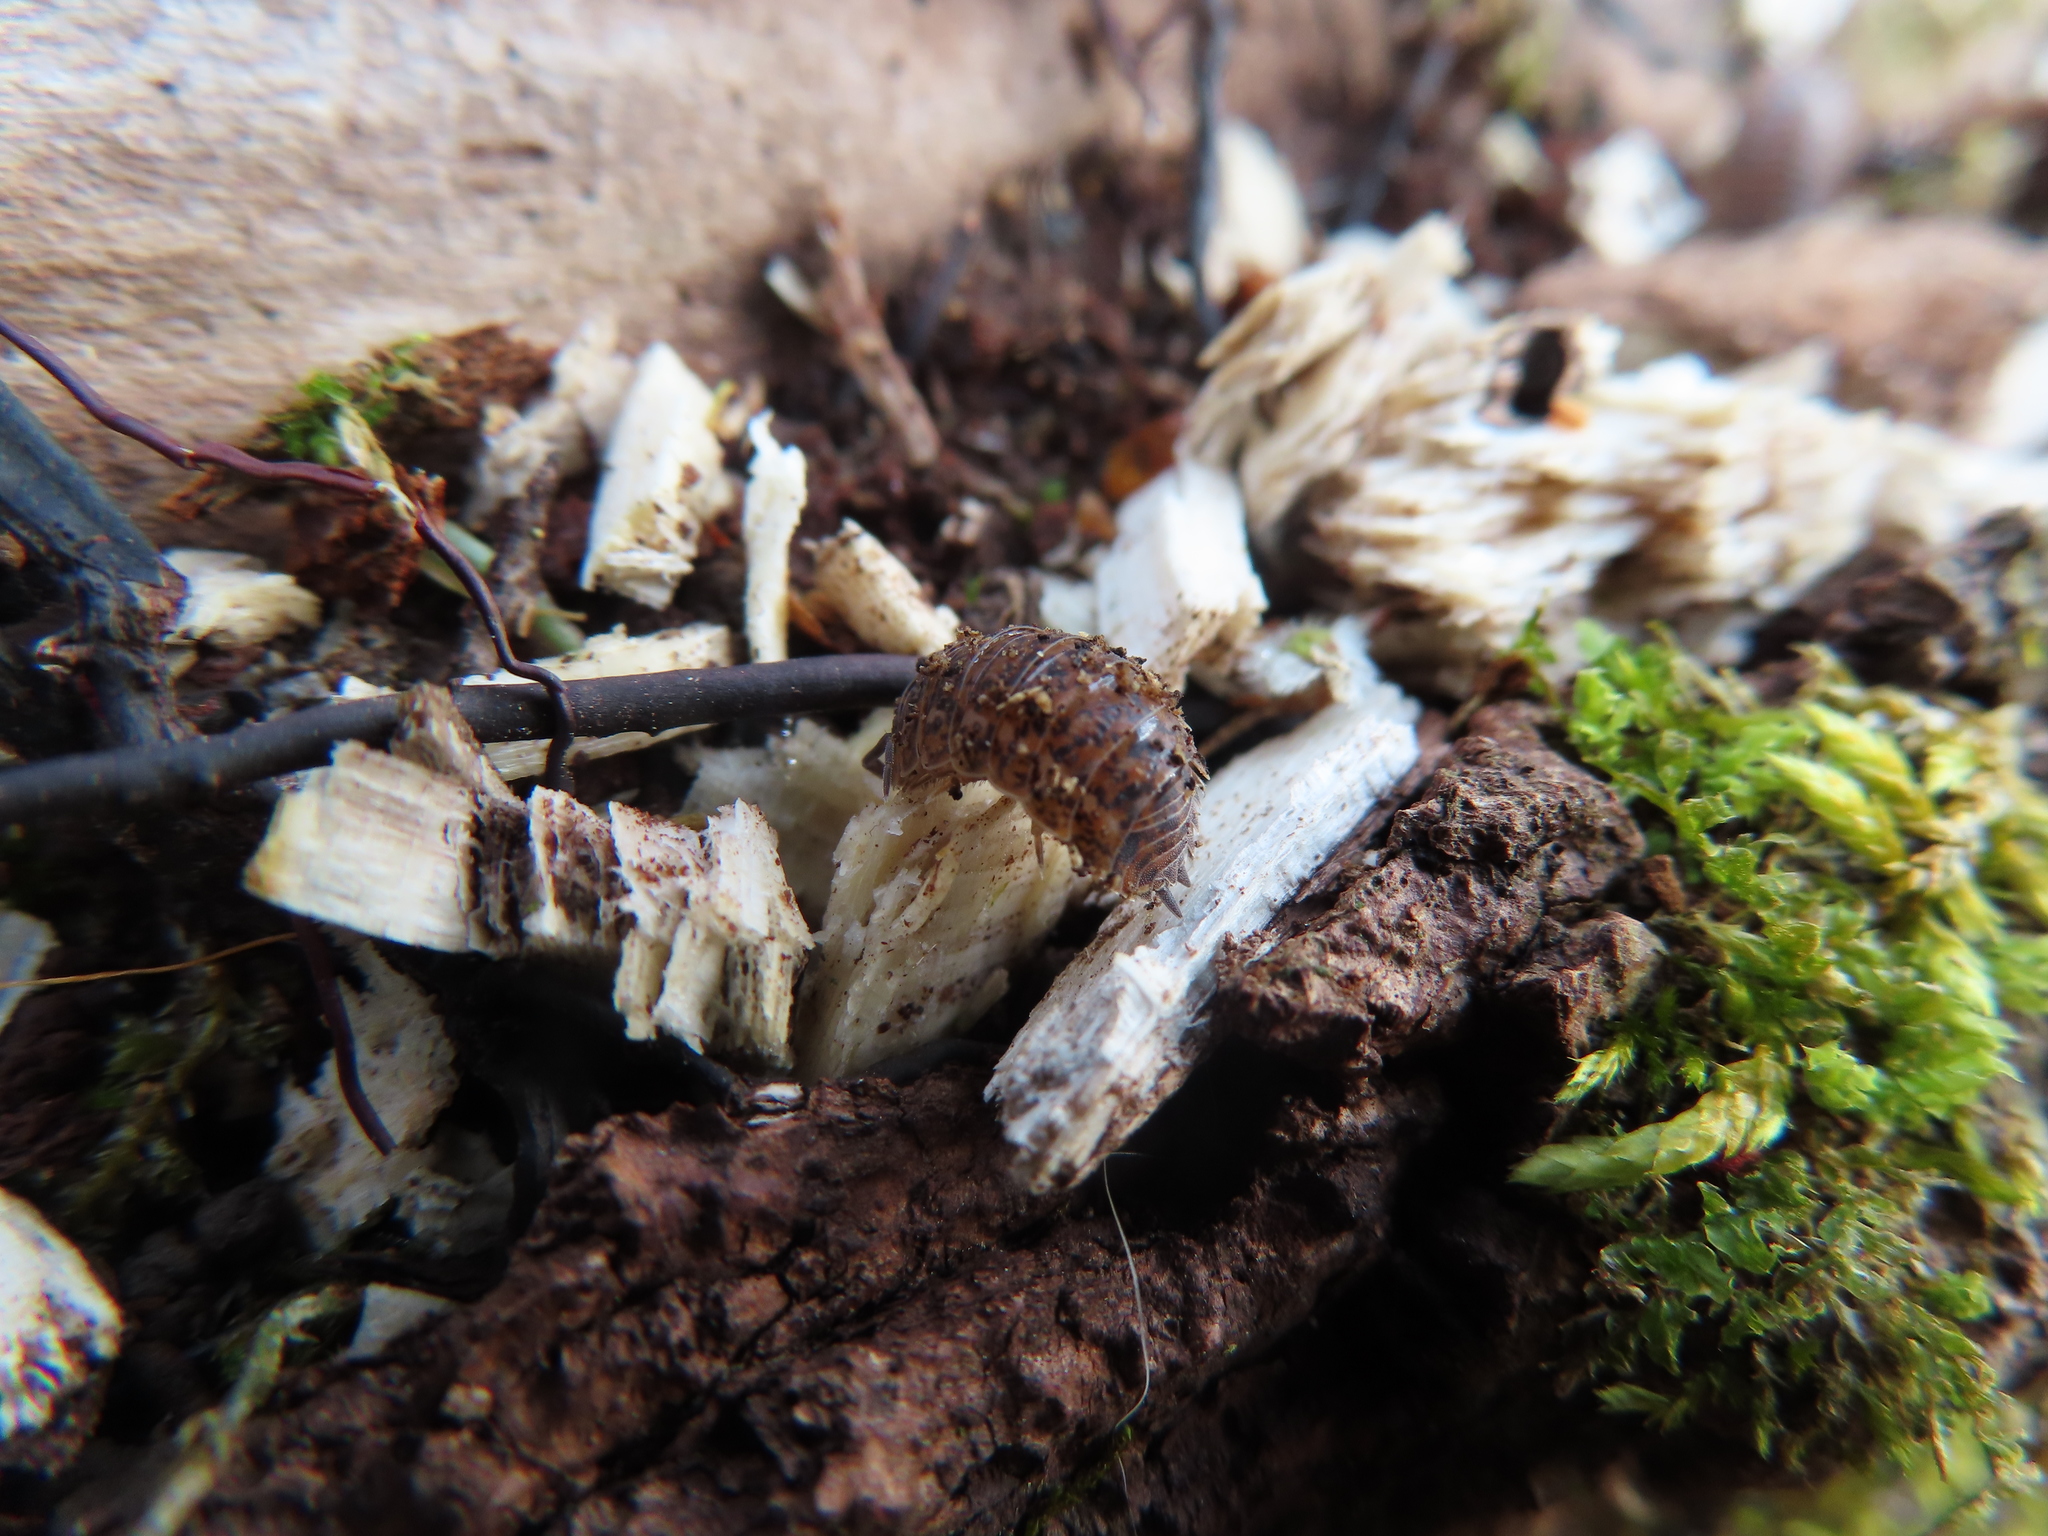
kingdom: Animalia
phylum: Arthropoda
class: Malacostraca
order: Isopoda
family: Trachelipodidae
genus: Trachelipus
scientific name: Trachelipus rathkii
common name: Isopod
